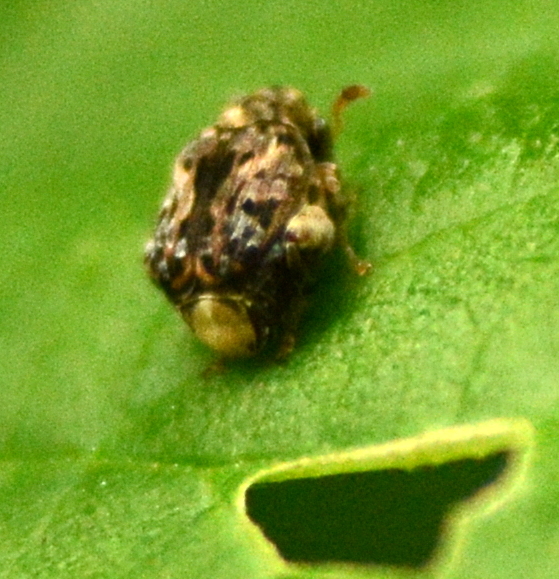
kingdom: Animalia
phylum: Arthropoda
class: Insecta
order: Coleoptera
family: Chrysomelidae
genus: Gibbobruchus
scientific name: Gibbobruchus mimus
